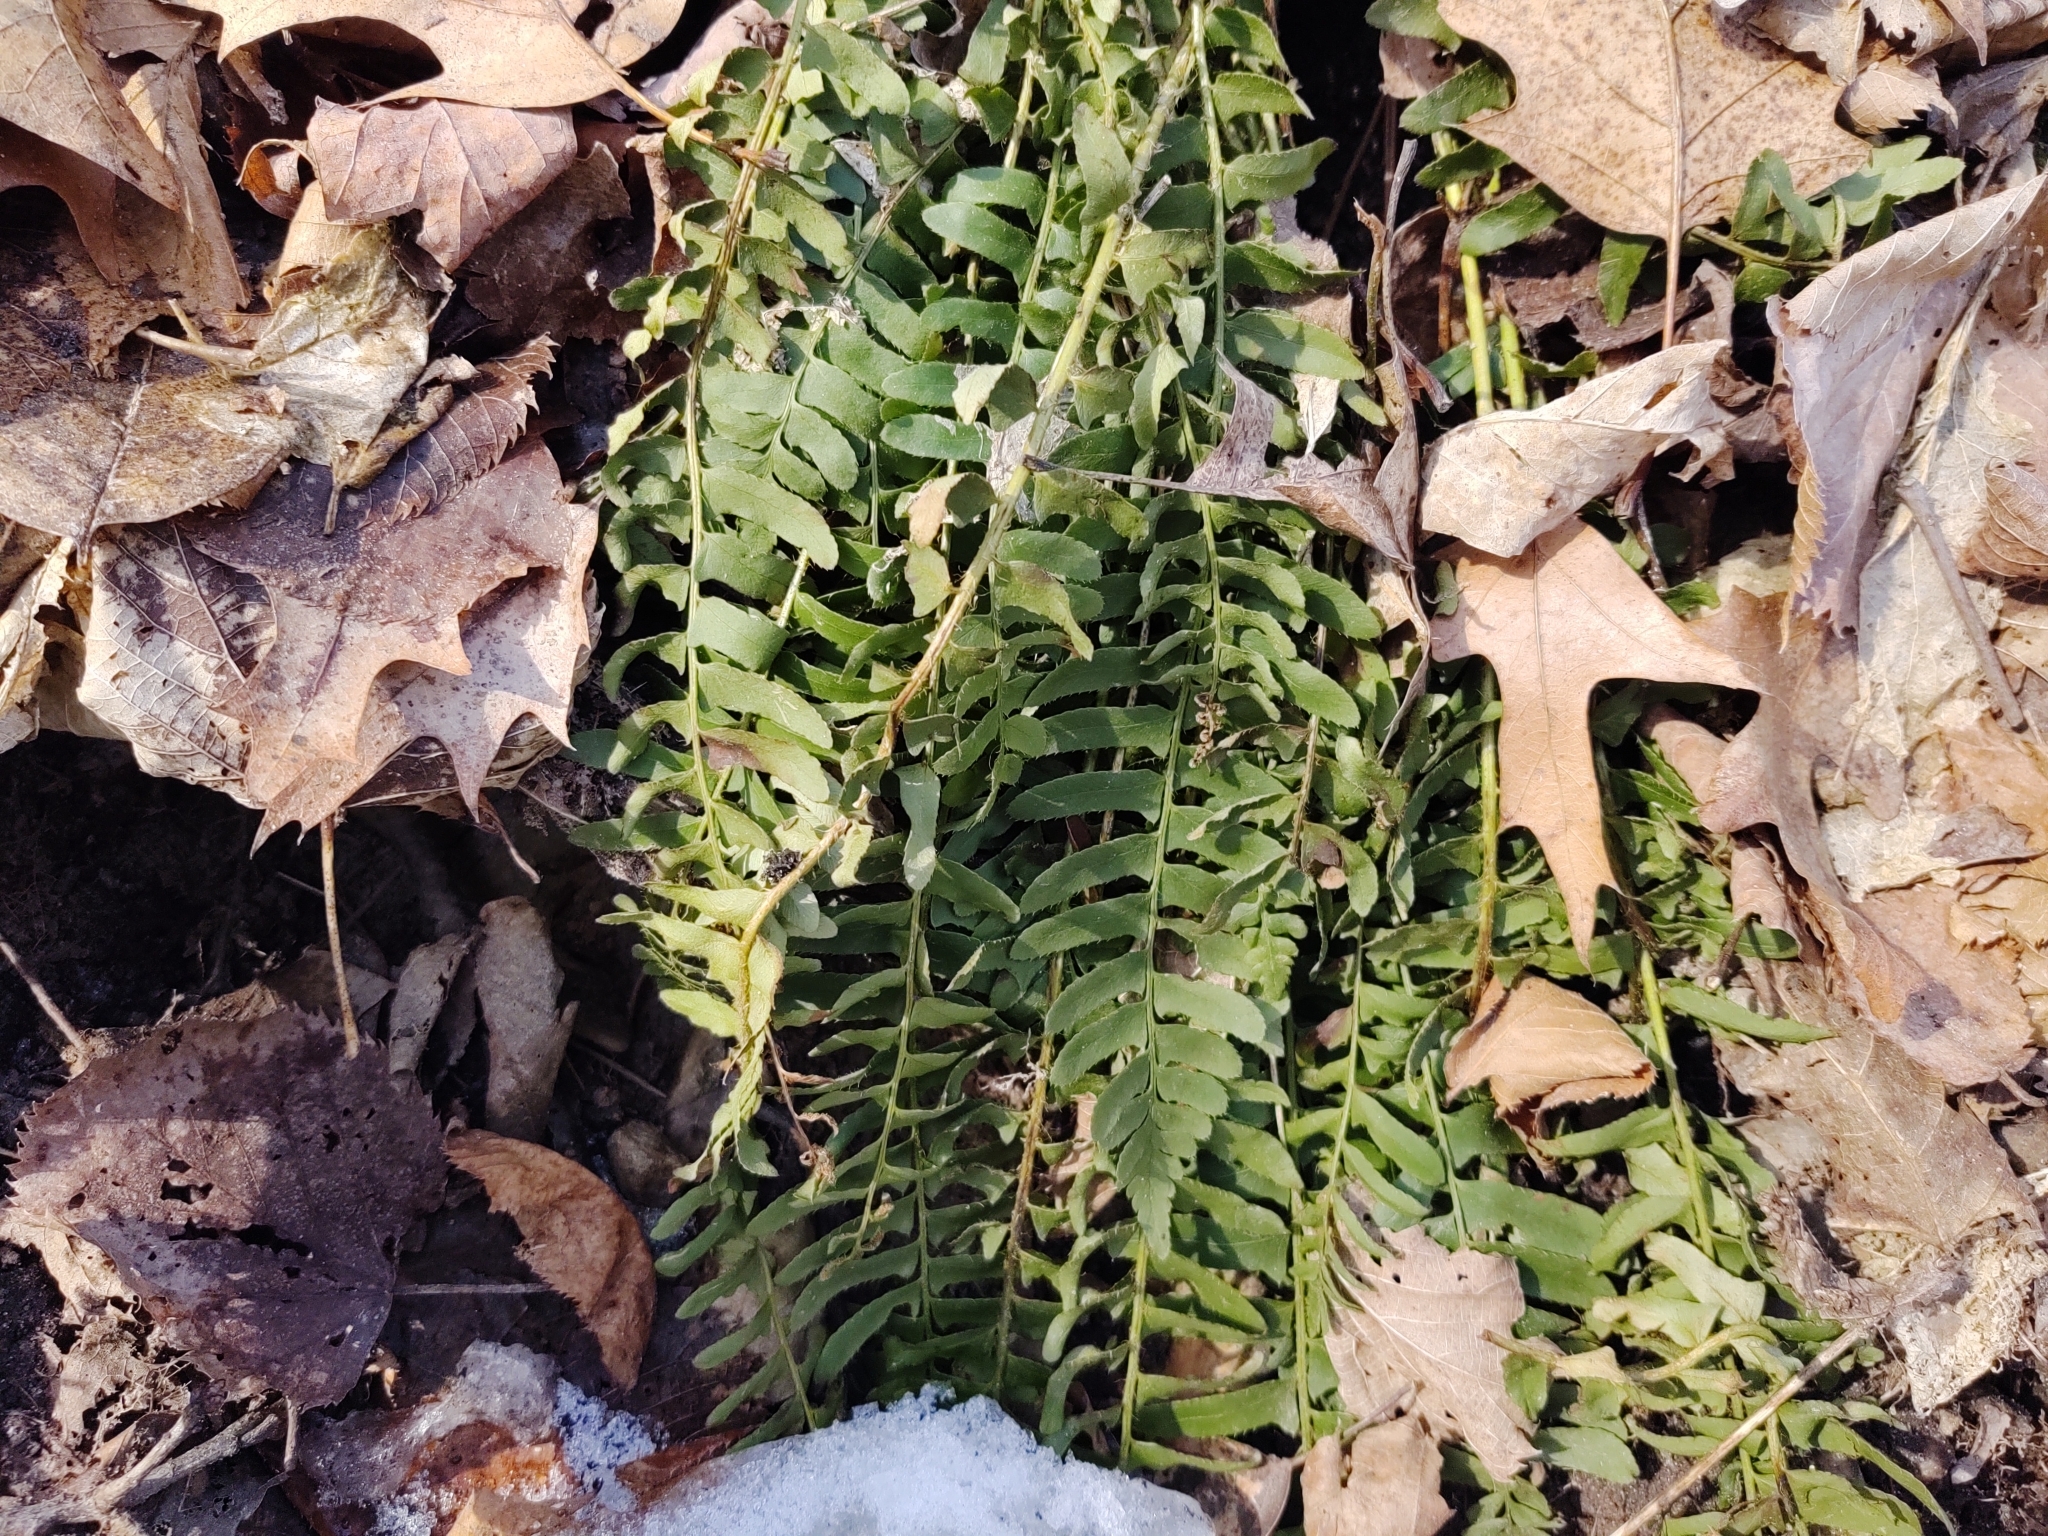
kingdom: Plantae
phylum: Tracheophyta
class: Polypodiopsida
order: Polypodiales
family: Dryopteridaceae
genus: Polystichum
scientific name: Polystichum acrostichoides
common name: Christmas fern
